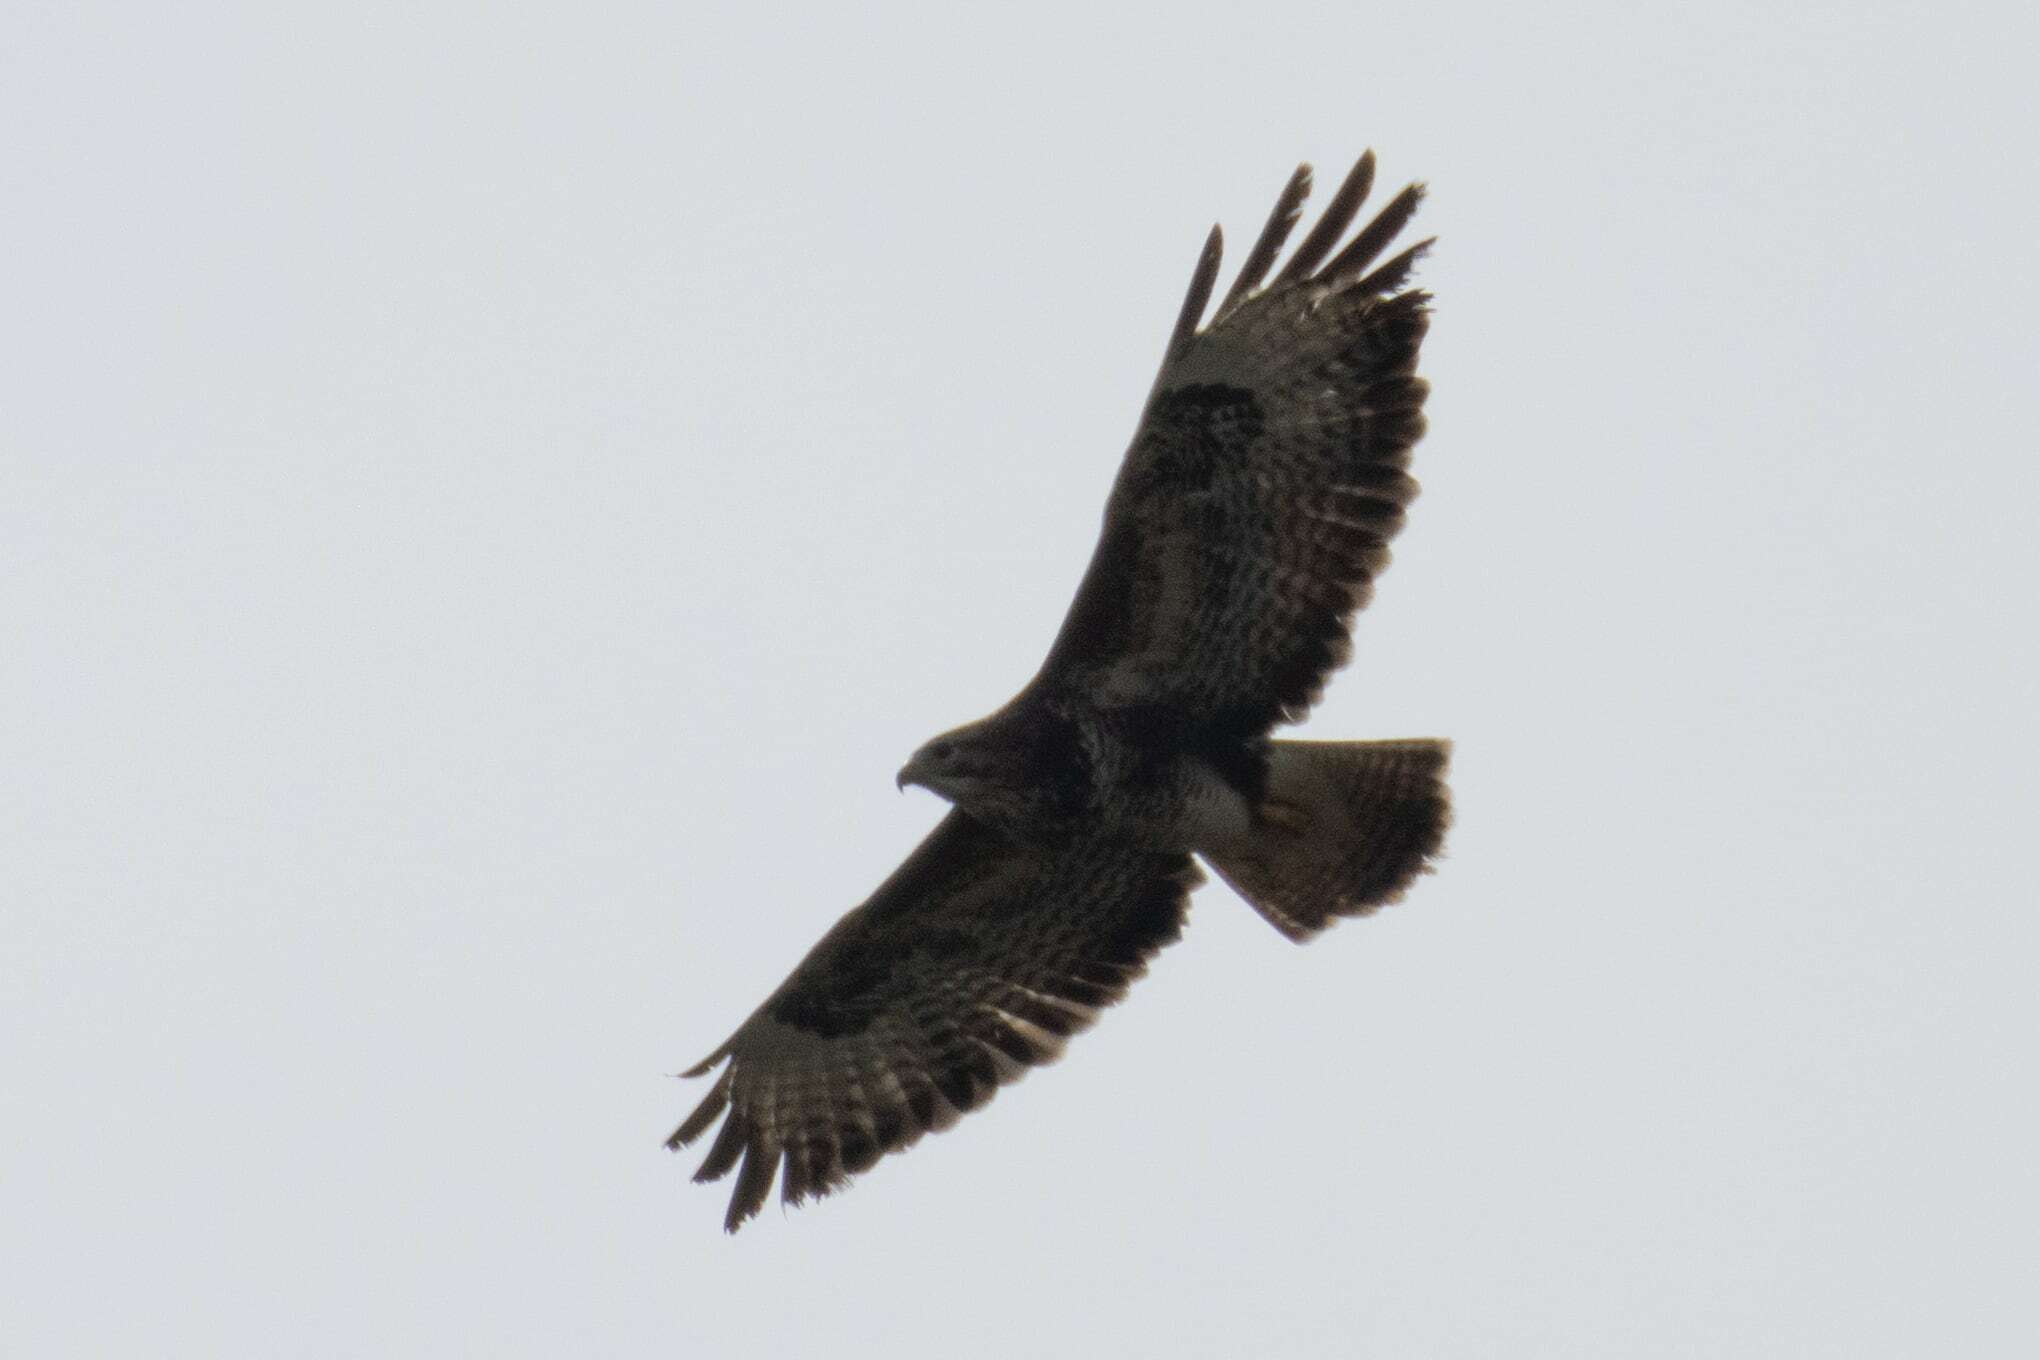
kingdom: Animalia
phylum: Chordata
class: Aves
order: Accipitriformes
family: Accipitridae
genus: Buteo
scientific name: Buteo buteo
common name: Common buzzard
